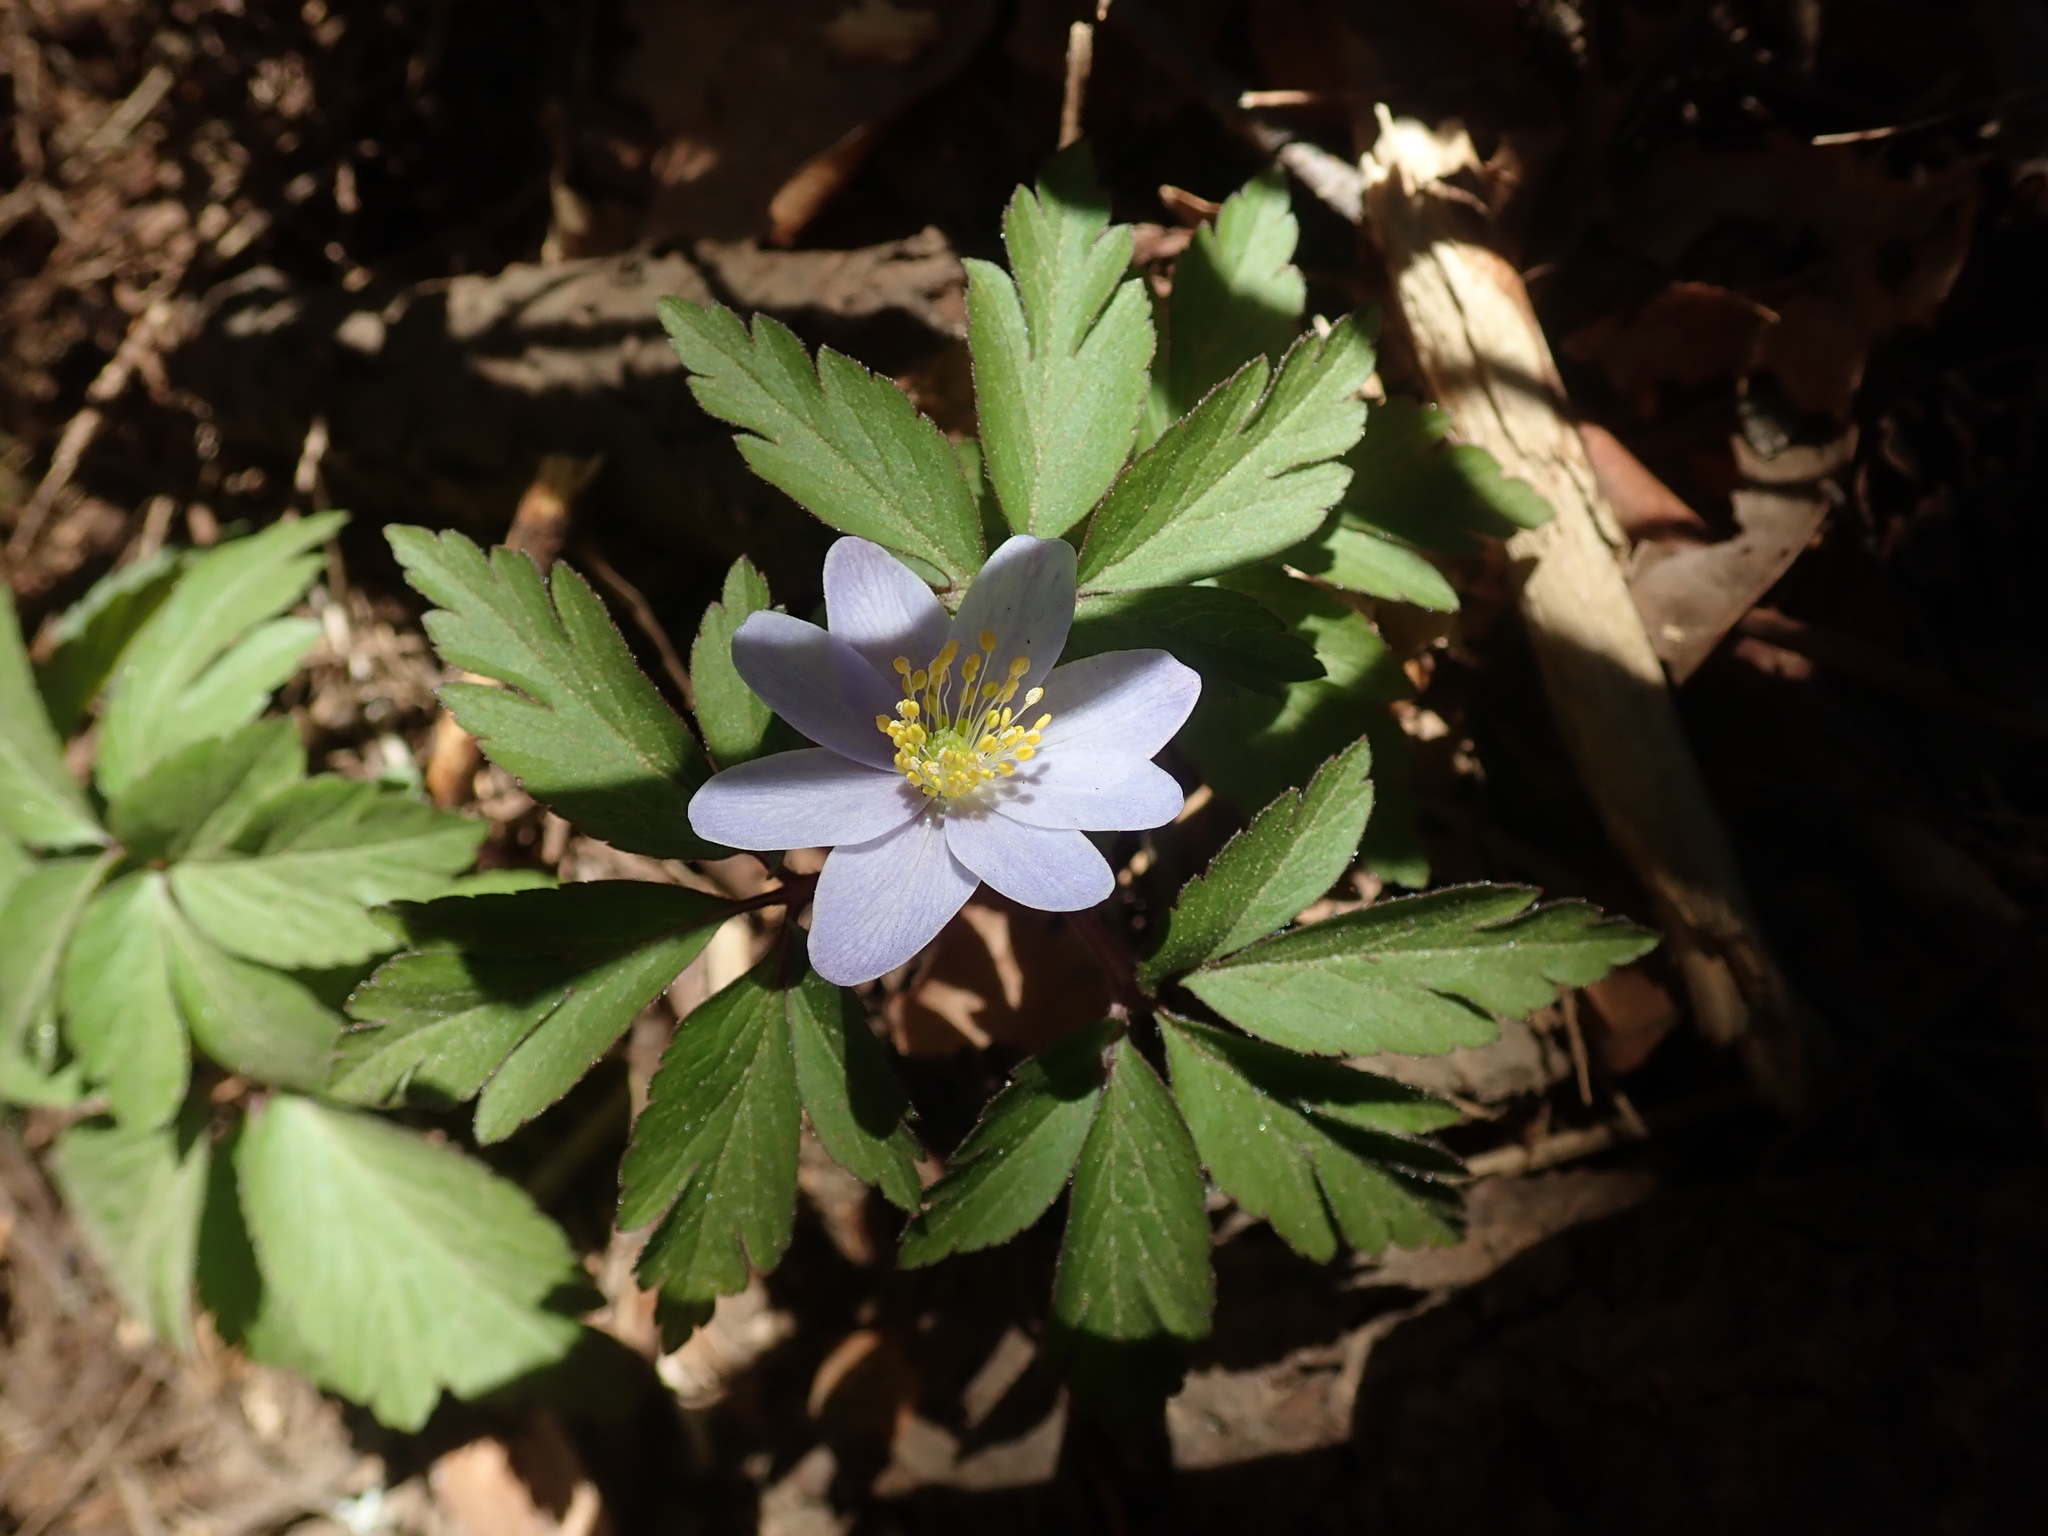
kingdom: Plantae
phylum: Tracheophyta
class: Magnoliopsida
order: Ranunculales
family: Ranunculaceae
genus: Anemone
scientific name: Anemone nemorosa
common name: Wood anemone
